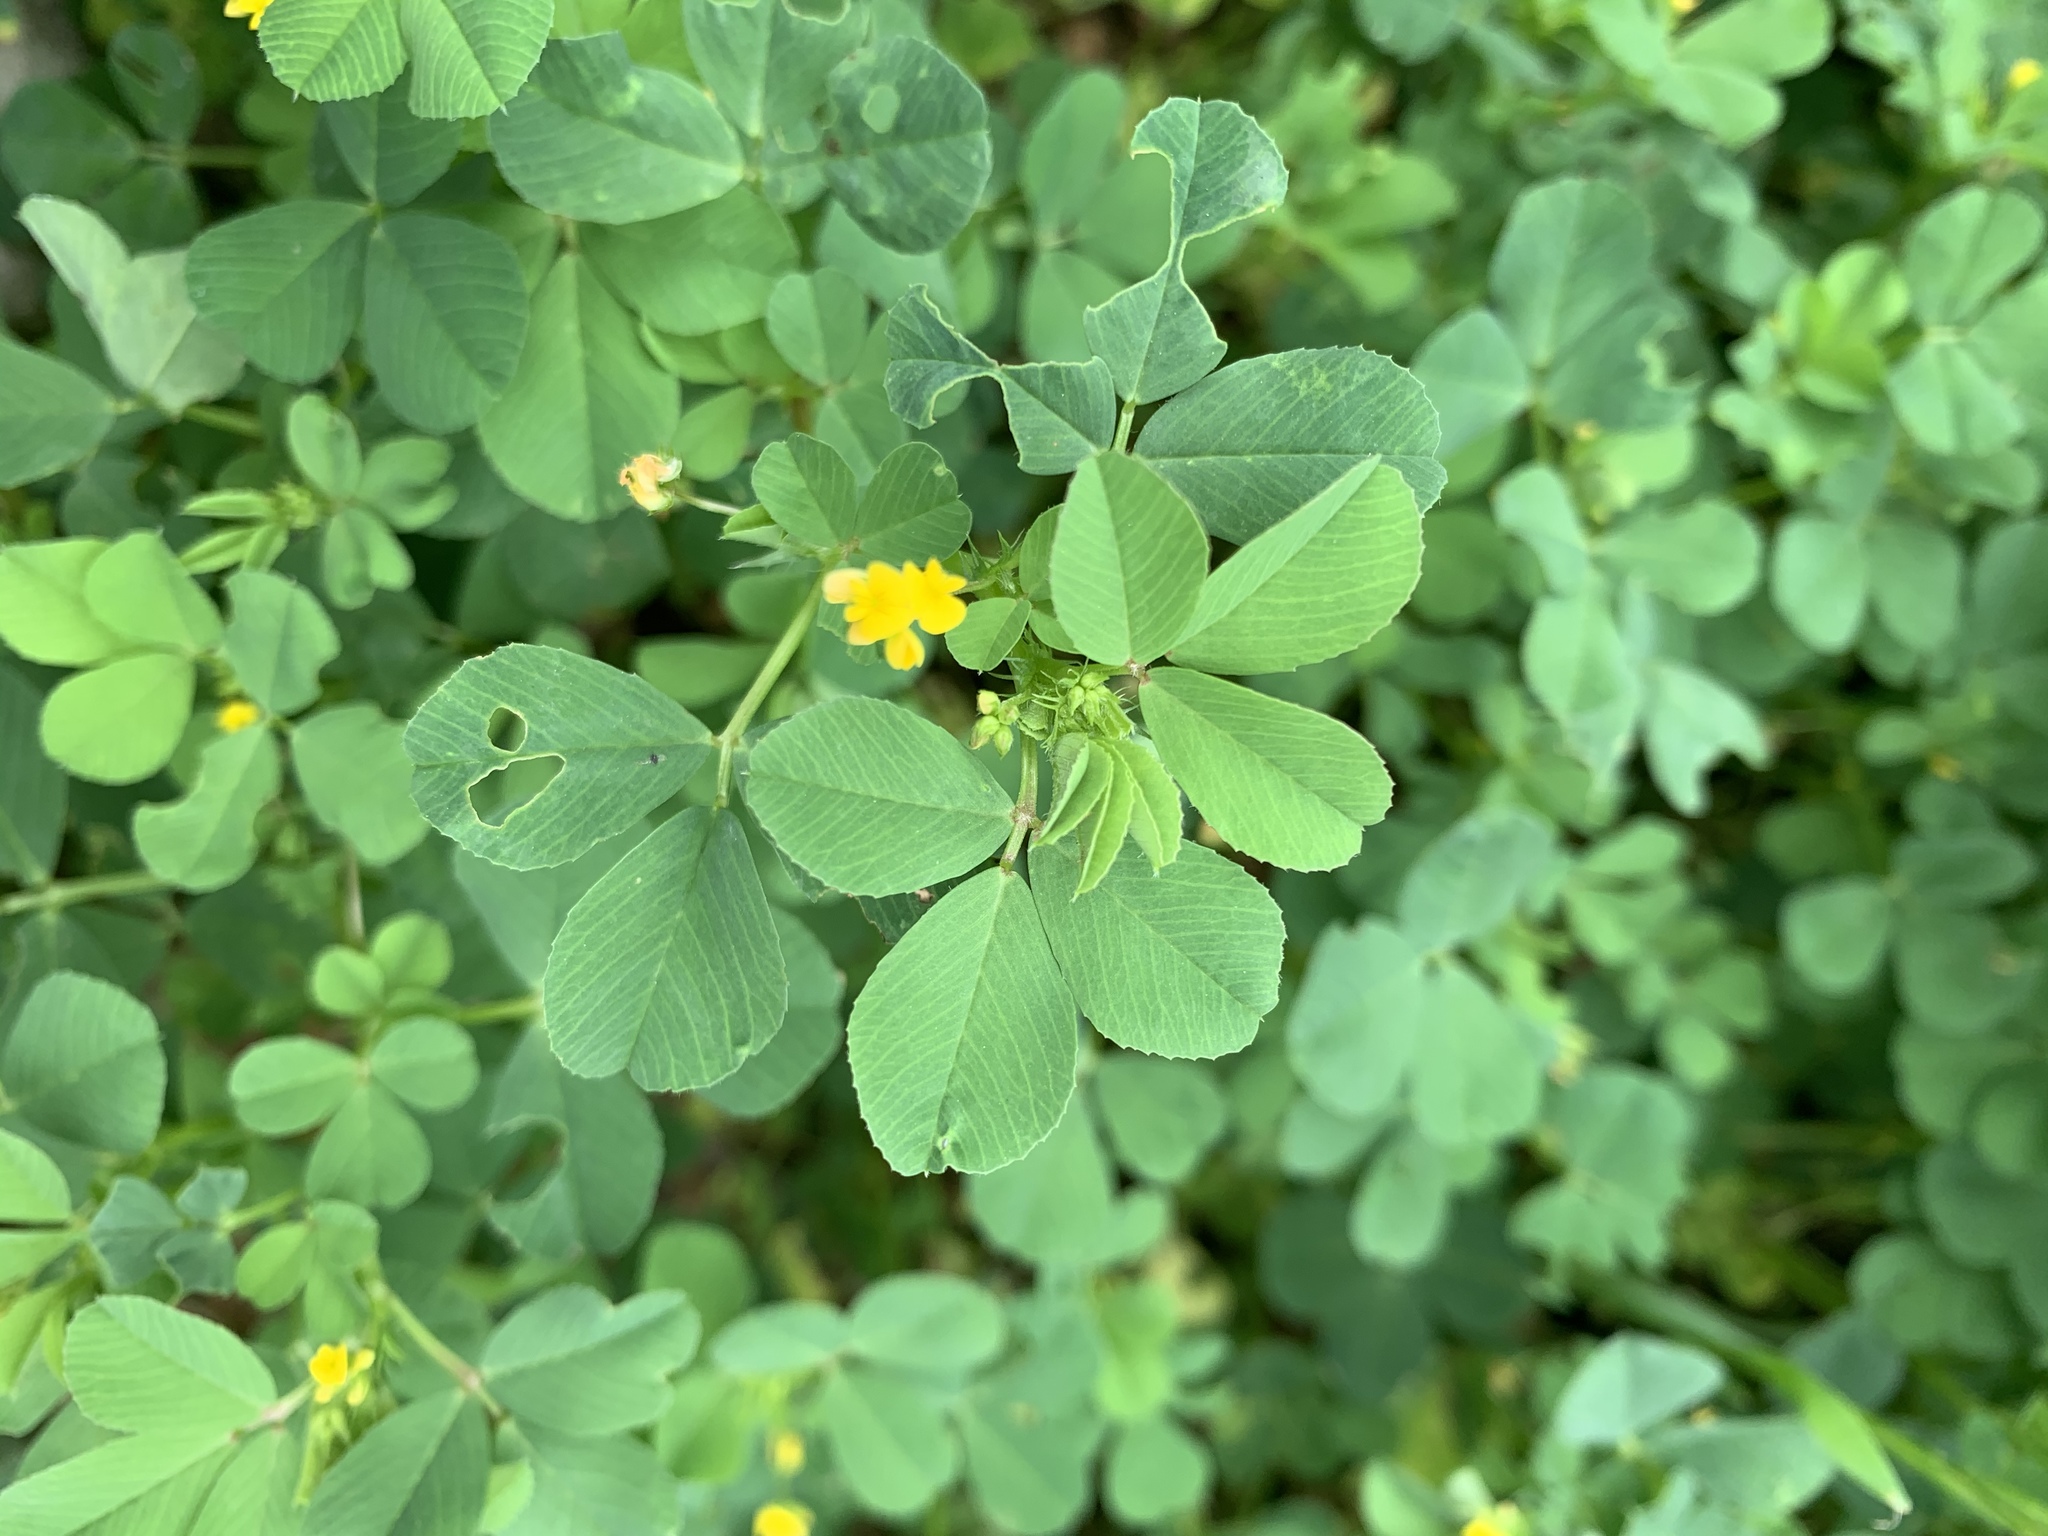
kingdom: Plantae
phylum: Tracheophyta
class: Magnoliopsida
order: Fabales
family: Fabaceae
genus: Medicago
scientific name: Medicago polymorpha
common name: Burclover
